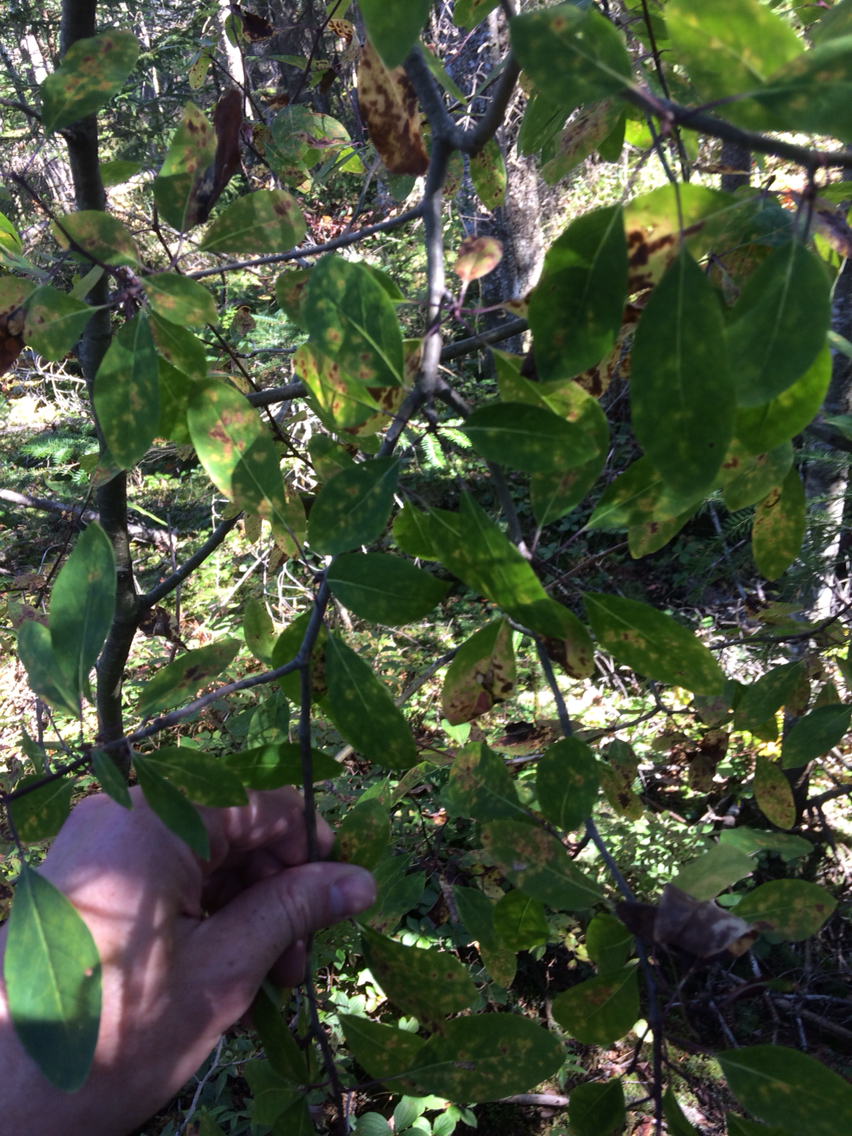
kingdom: Plantae
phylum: Tracheophyta
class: Magnoliopsida
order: Aquifoliales
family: Aquifoliaceae
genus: Ilex
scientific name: Ilex mucronata
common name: Catberry
